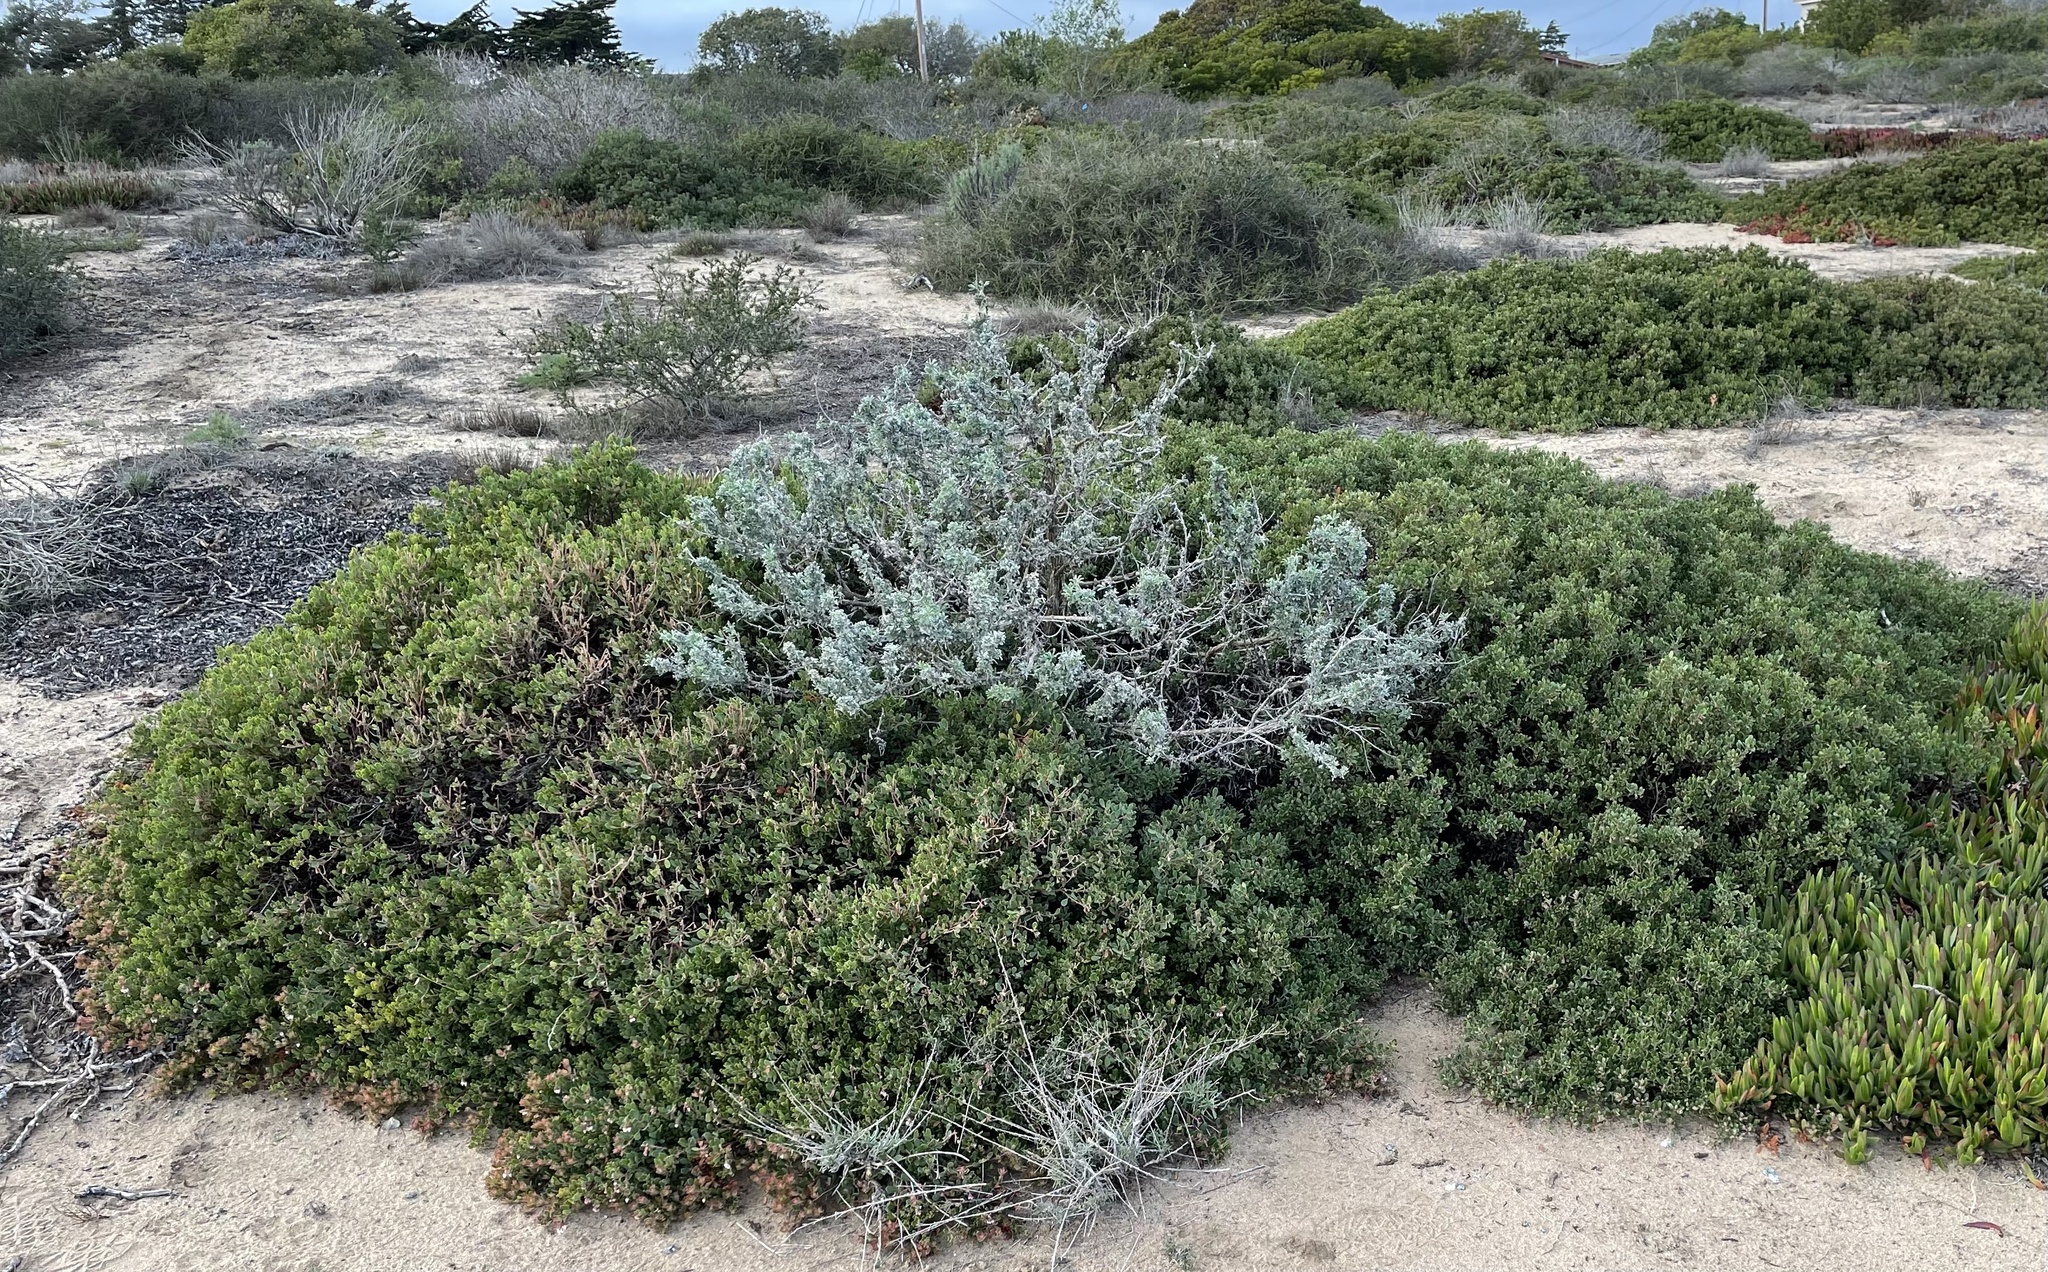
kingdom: Plantae
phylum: Tracheophyta
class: Magnoliopsida
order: Fabales
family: Fabaceae
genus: Lupinus
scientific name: Lupinus chamissonis
